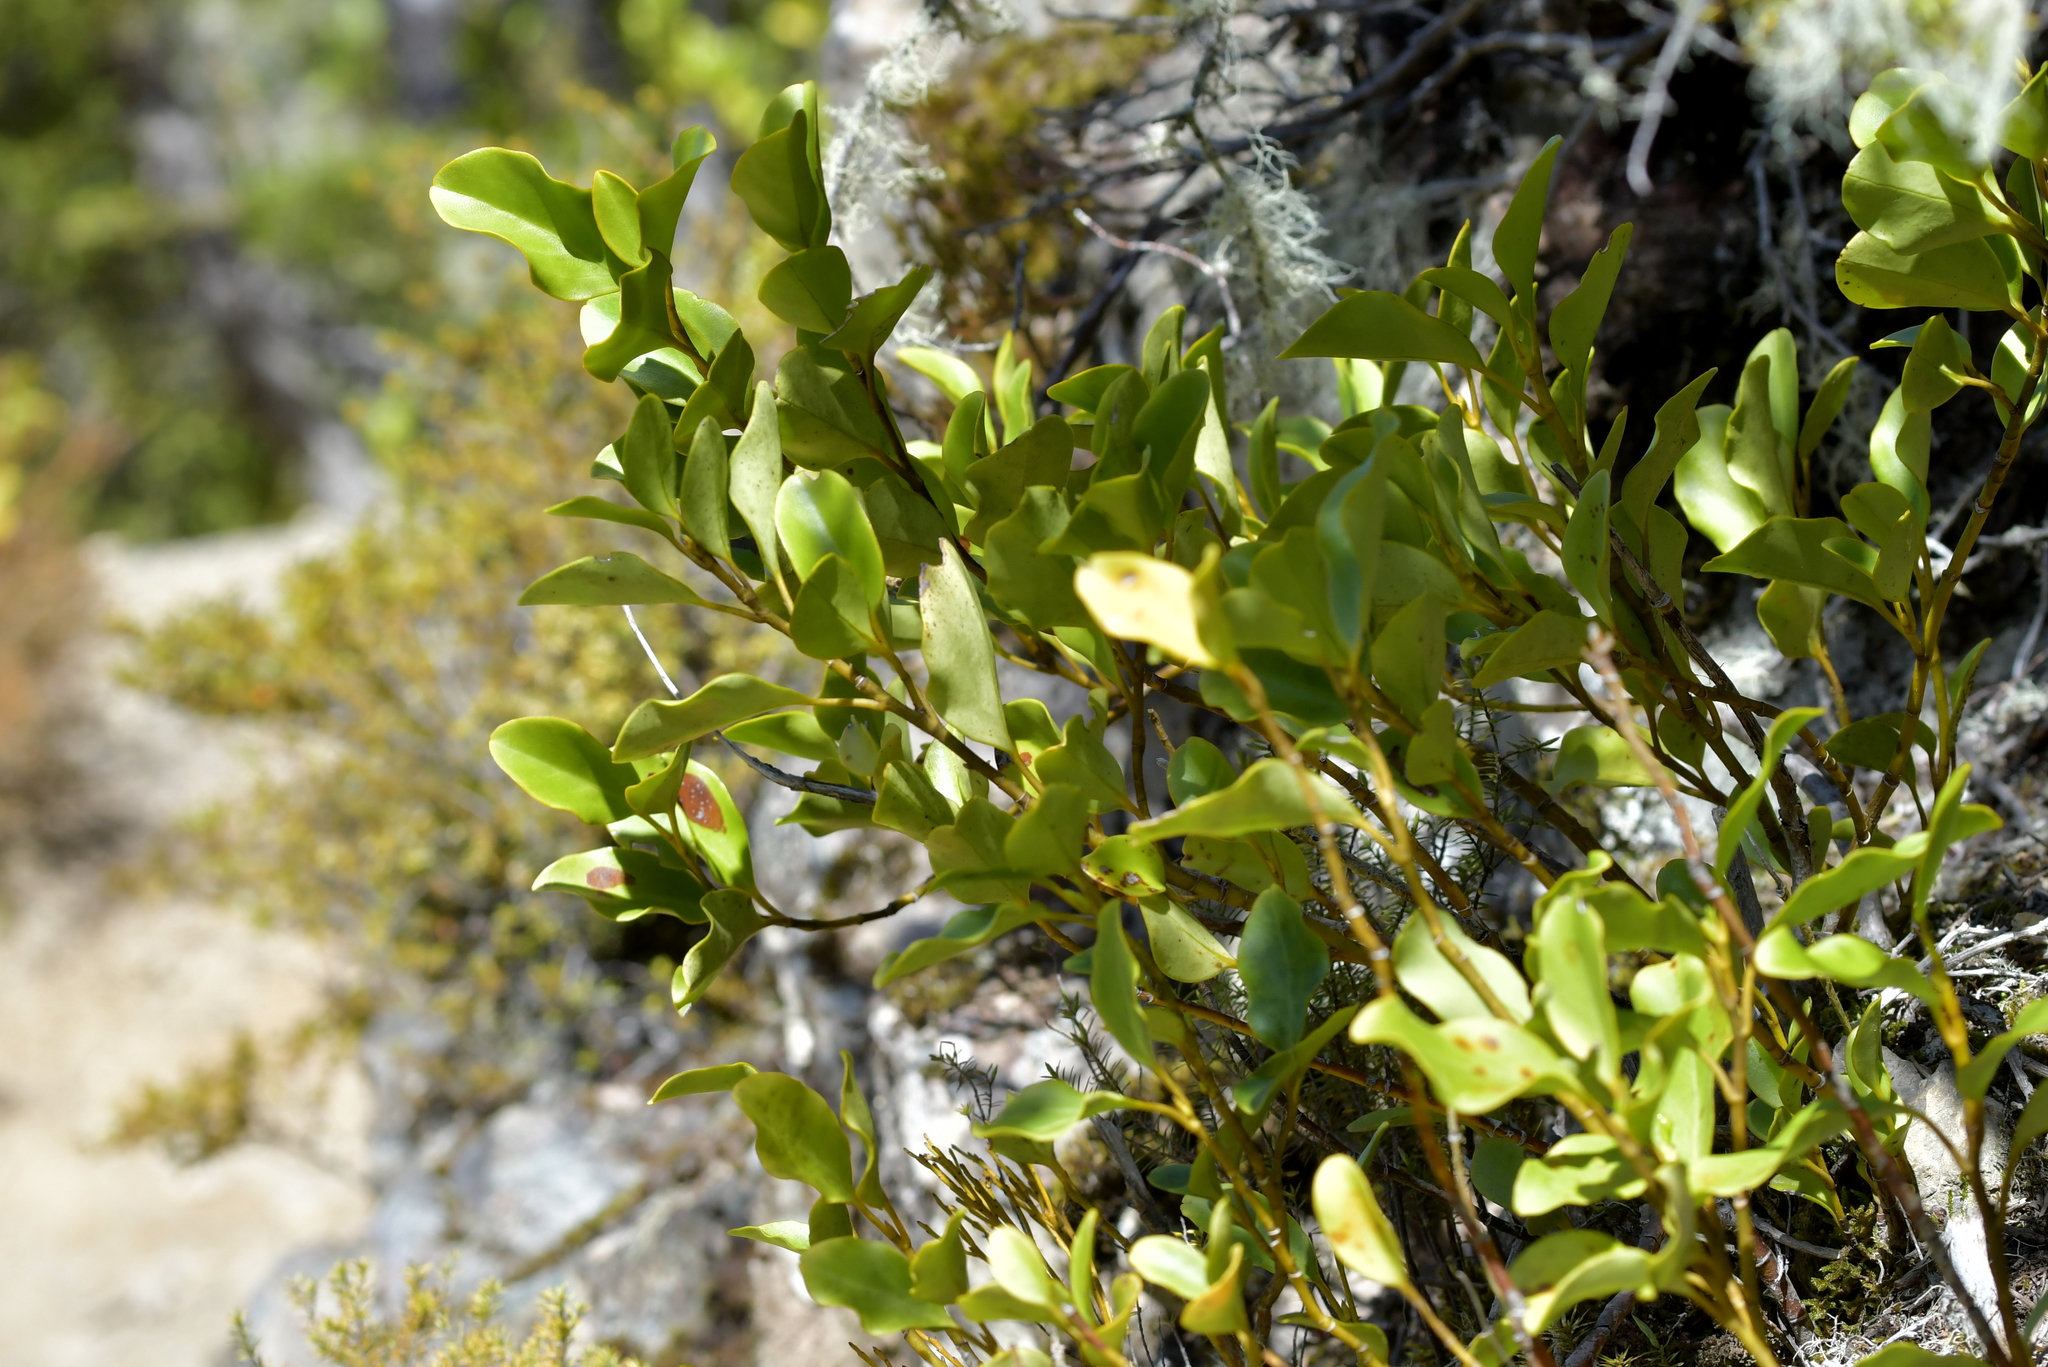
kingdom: Plantae
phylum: Tracheophyta
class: Magnoliopsida
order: Apiales
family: Griseliniaceae
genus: Griselinia
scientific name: Griselinia littoralis
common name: New zealand broadleaf
